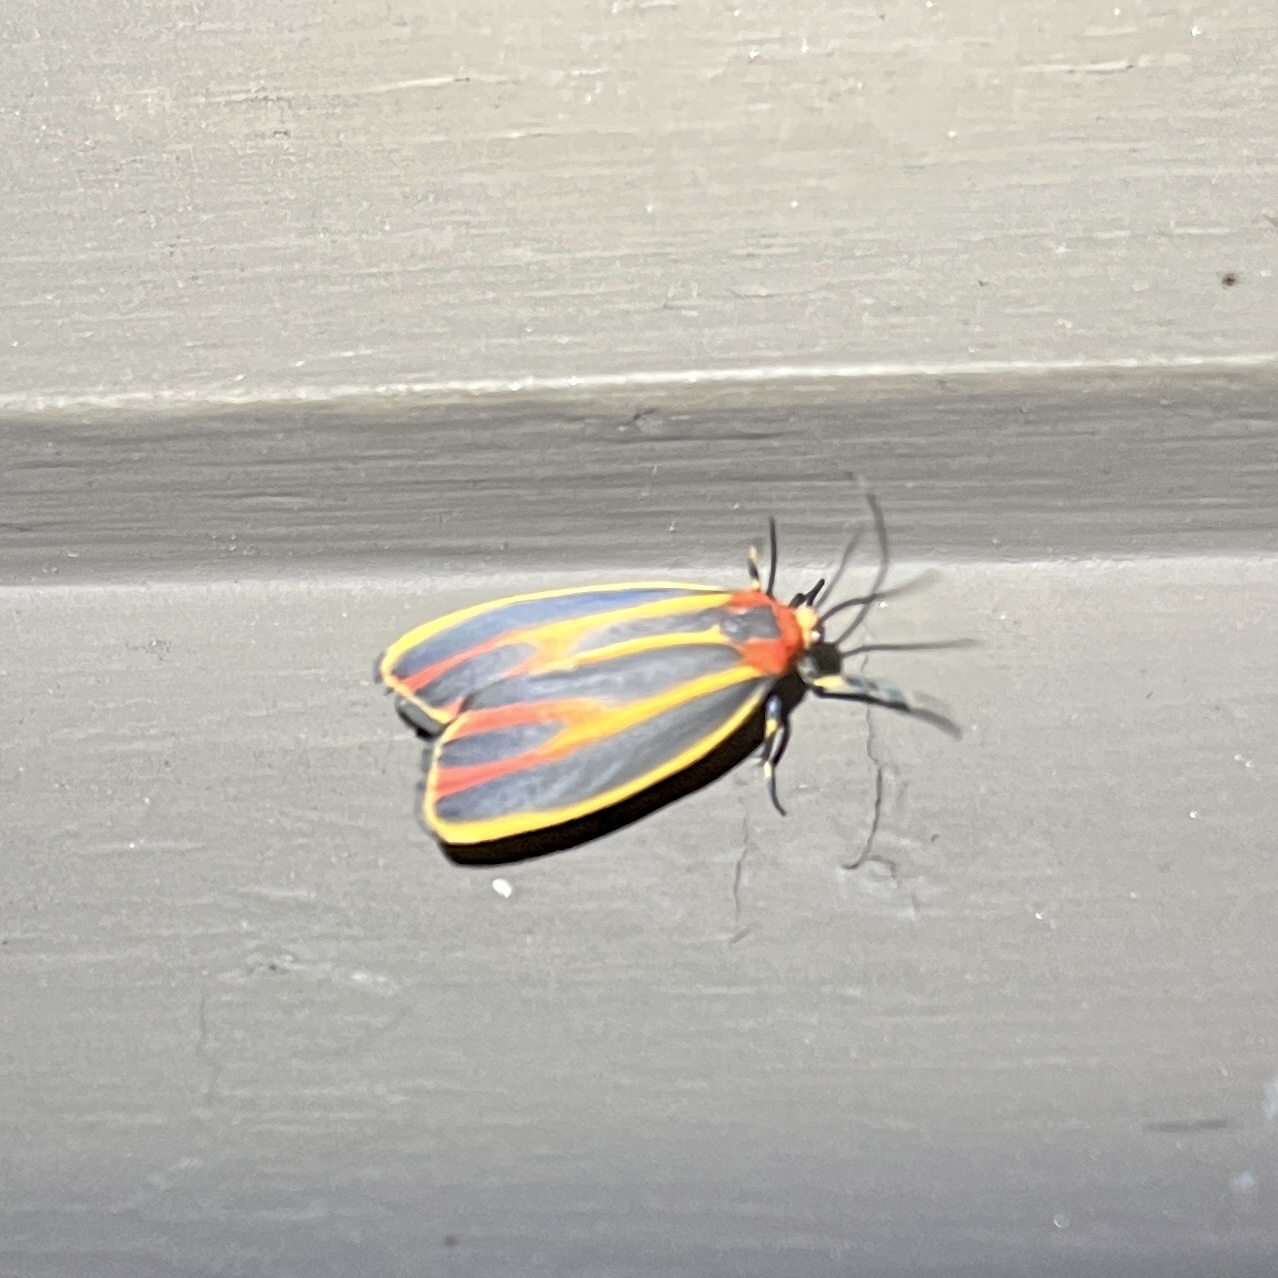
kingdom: Animalia
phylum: Arthropoda
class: Insecta
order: Lepidoptera
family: Erebidae
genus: Hypoprepia
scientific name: Hypoprepia fucosa
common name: Painted lichen moth
